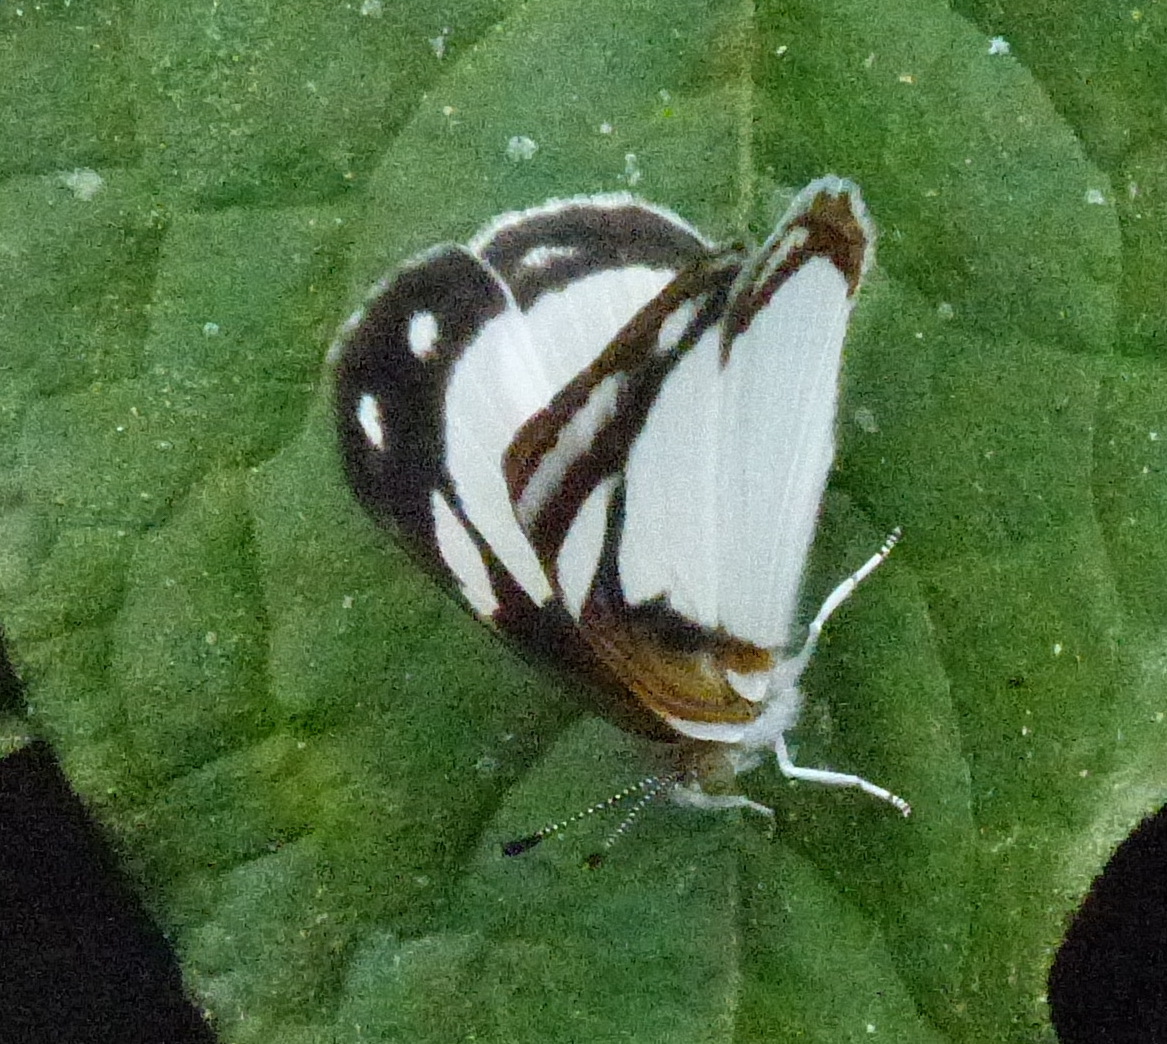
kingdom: Animalia
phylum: Arthropoda
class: Insecta
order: Lepidoptera
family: Nymphalidae
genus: Dynamine
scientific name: Dynamine agacles
